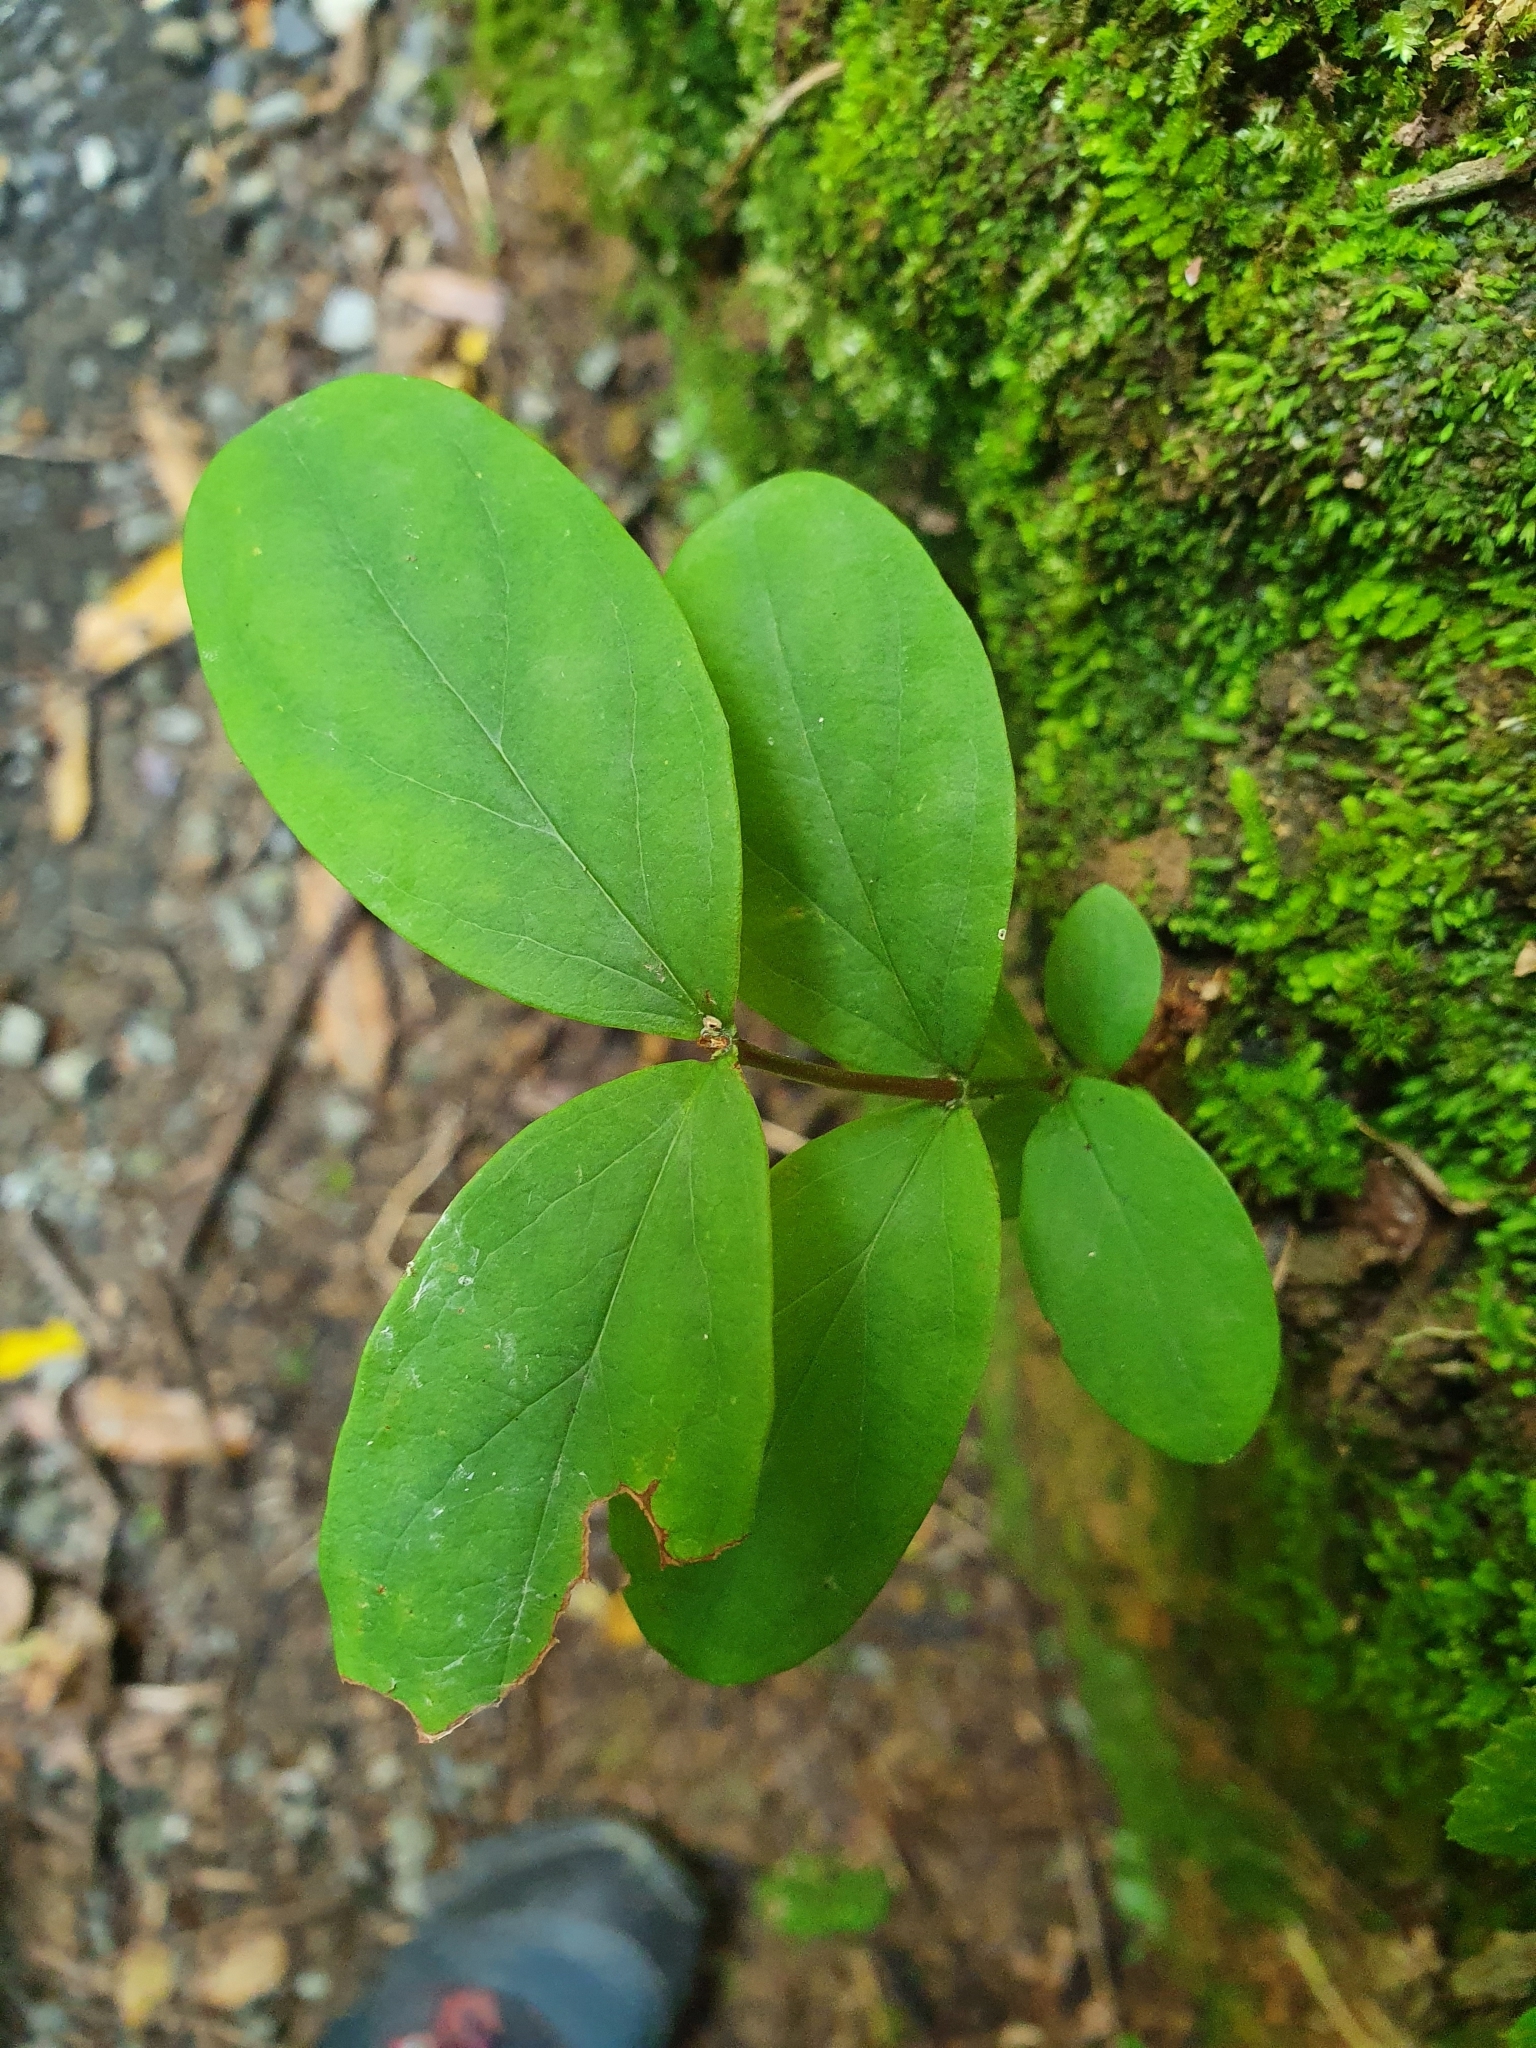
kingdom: Plantae
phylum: Tracheophyta
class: Magnoliopsida
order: Malpighiales
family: Hypericaceae
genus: Hypericum
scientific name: Hypericum androsaemum
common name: Sweet-amber
